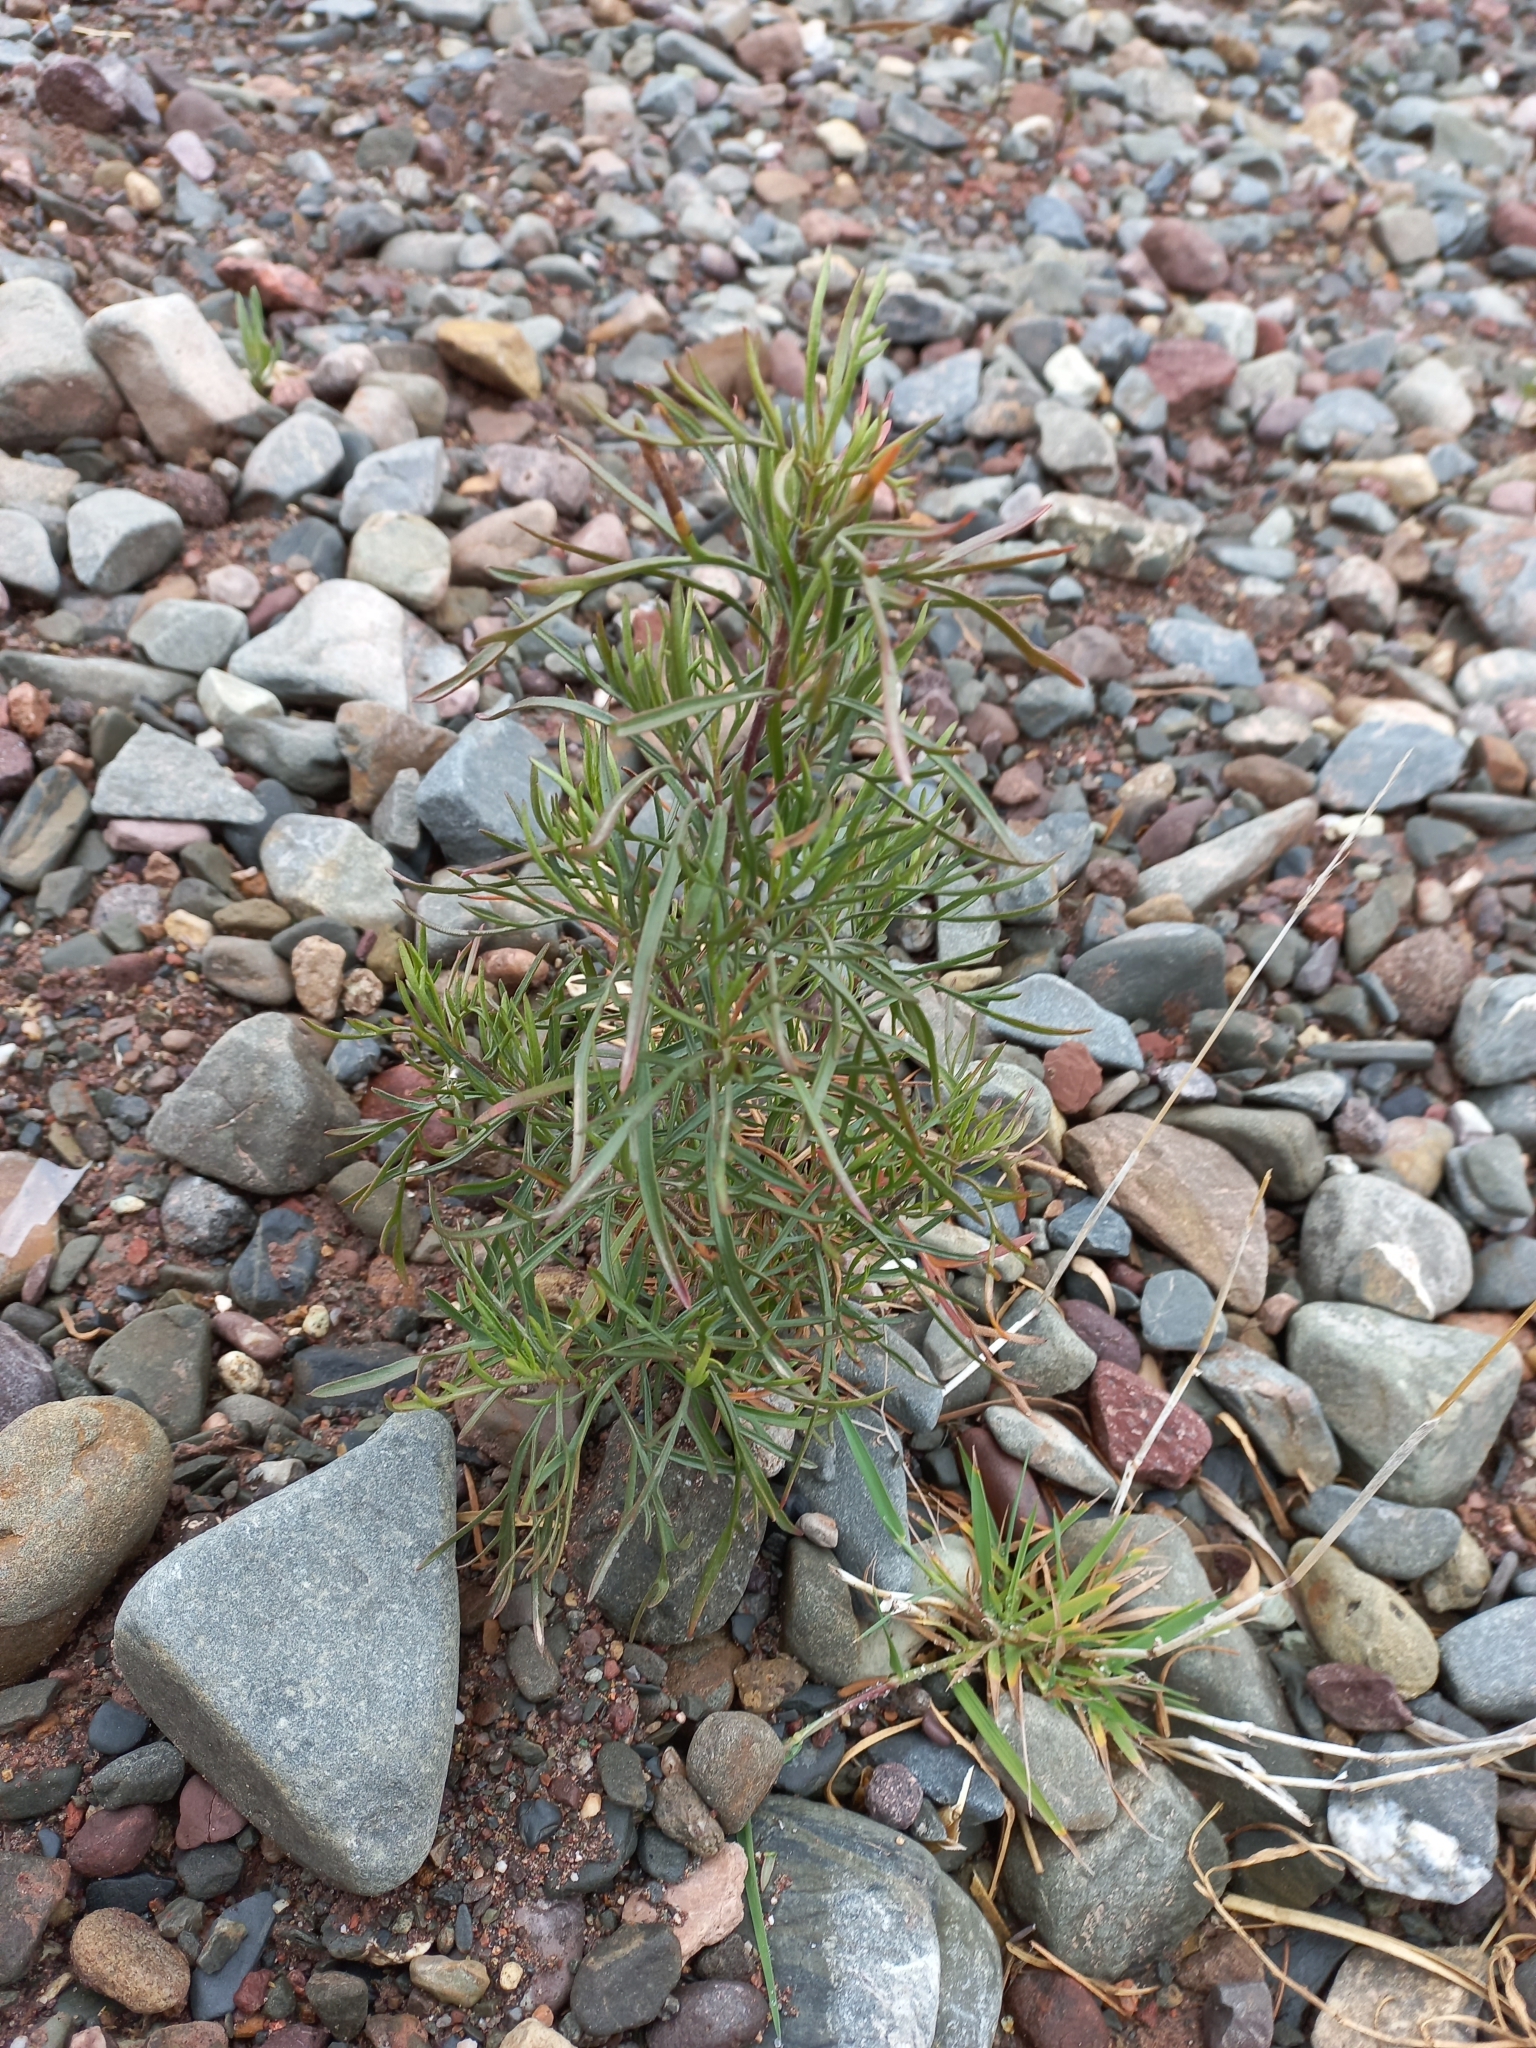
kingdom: Plantae
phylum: Tracheophyta
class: Magnoliopsida
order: Asterales
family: Asteraceae
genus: Acanthostyles
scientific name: Acanthostyles buniifolius
